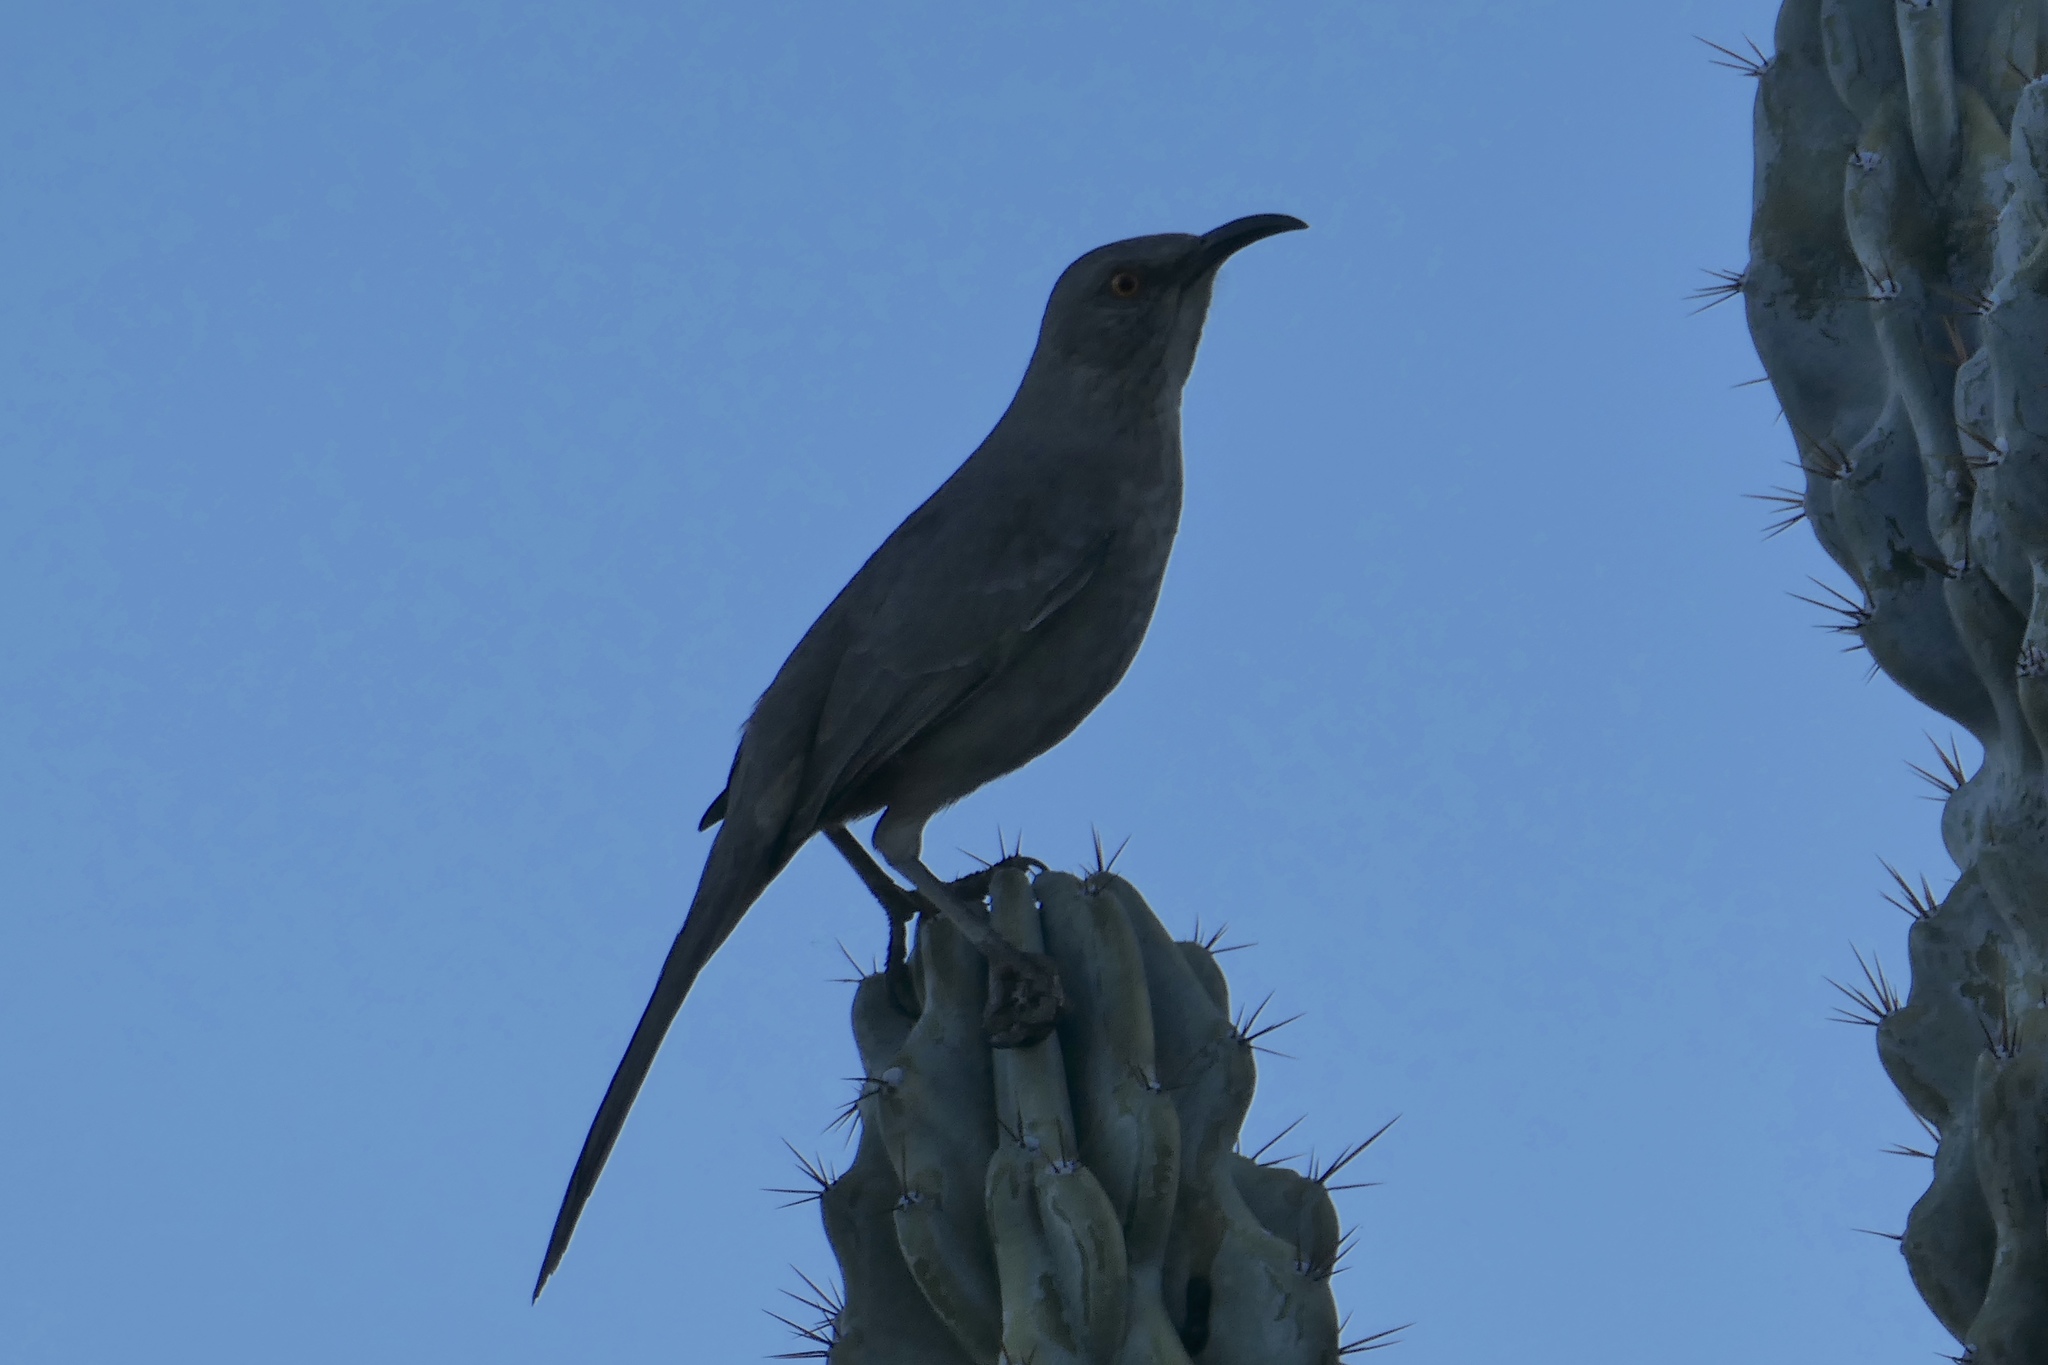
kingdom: Animalia
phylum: Chordata
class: Aves
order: Passeriformes
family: Mimidae
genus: Toxostoma
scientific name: Toxostoma curvirostre
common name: Curve-billed thrasher
